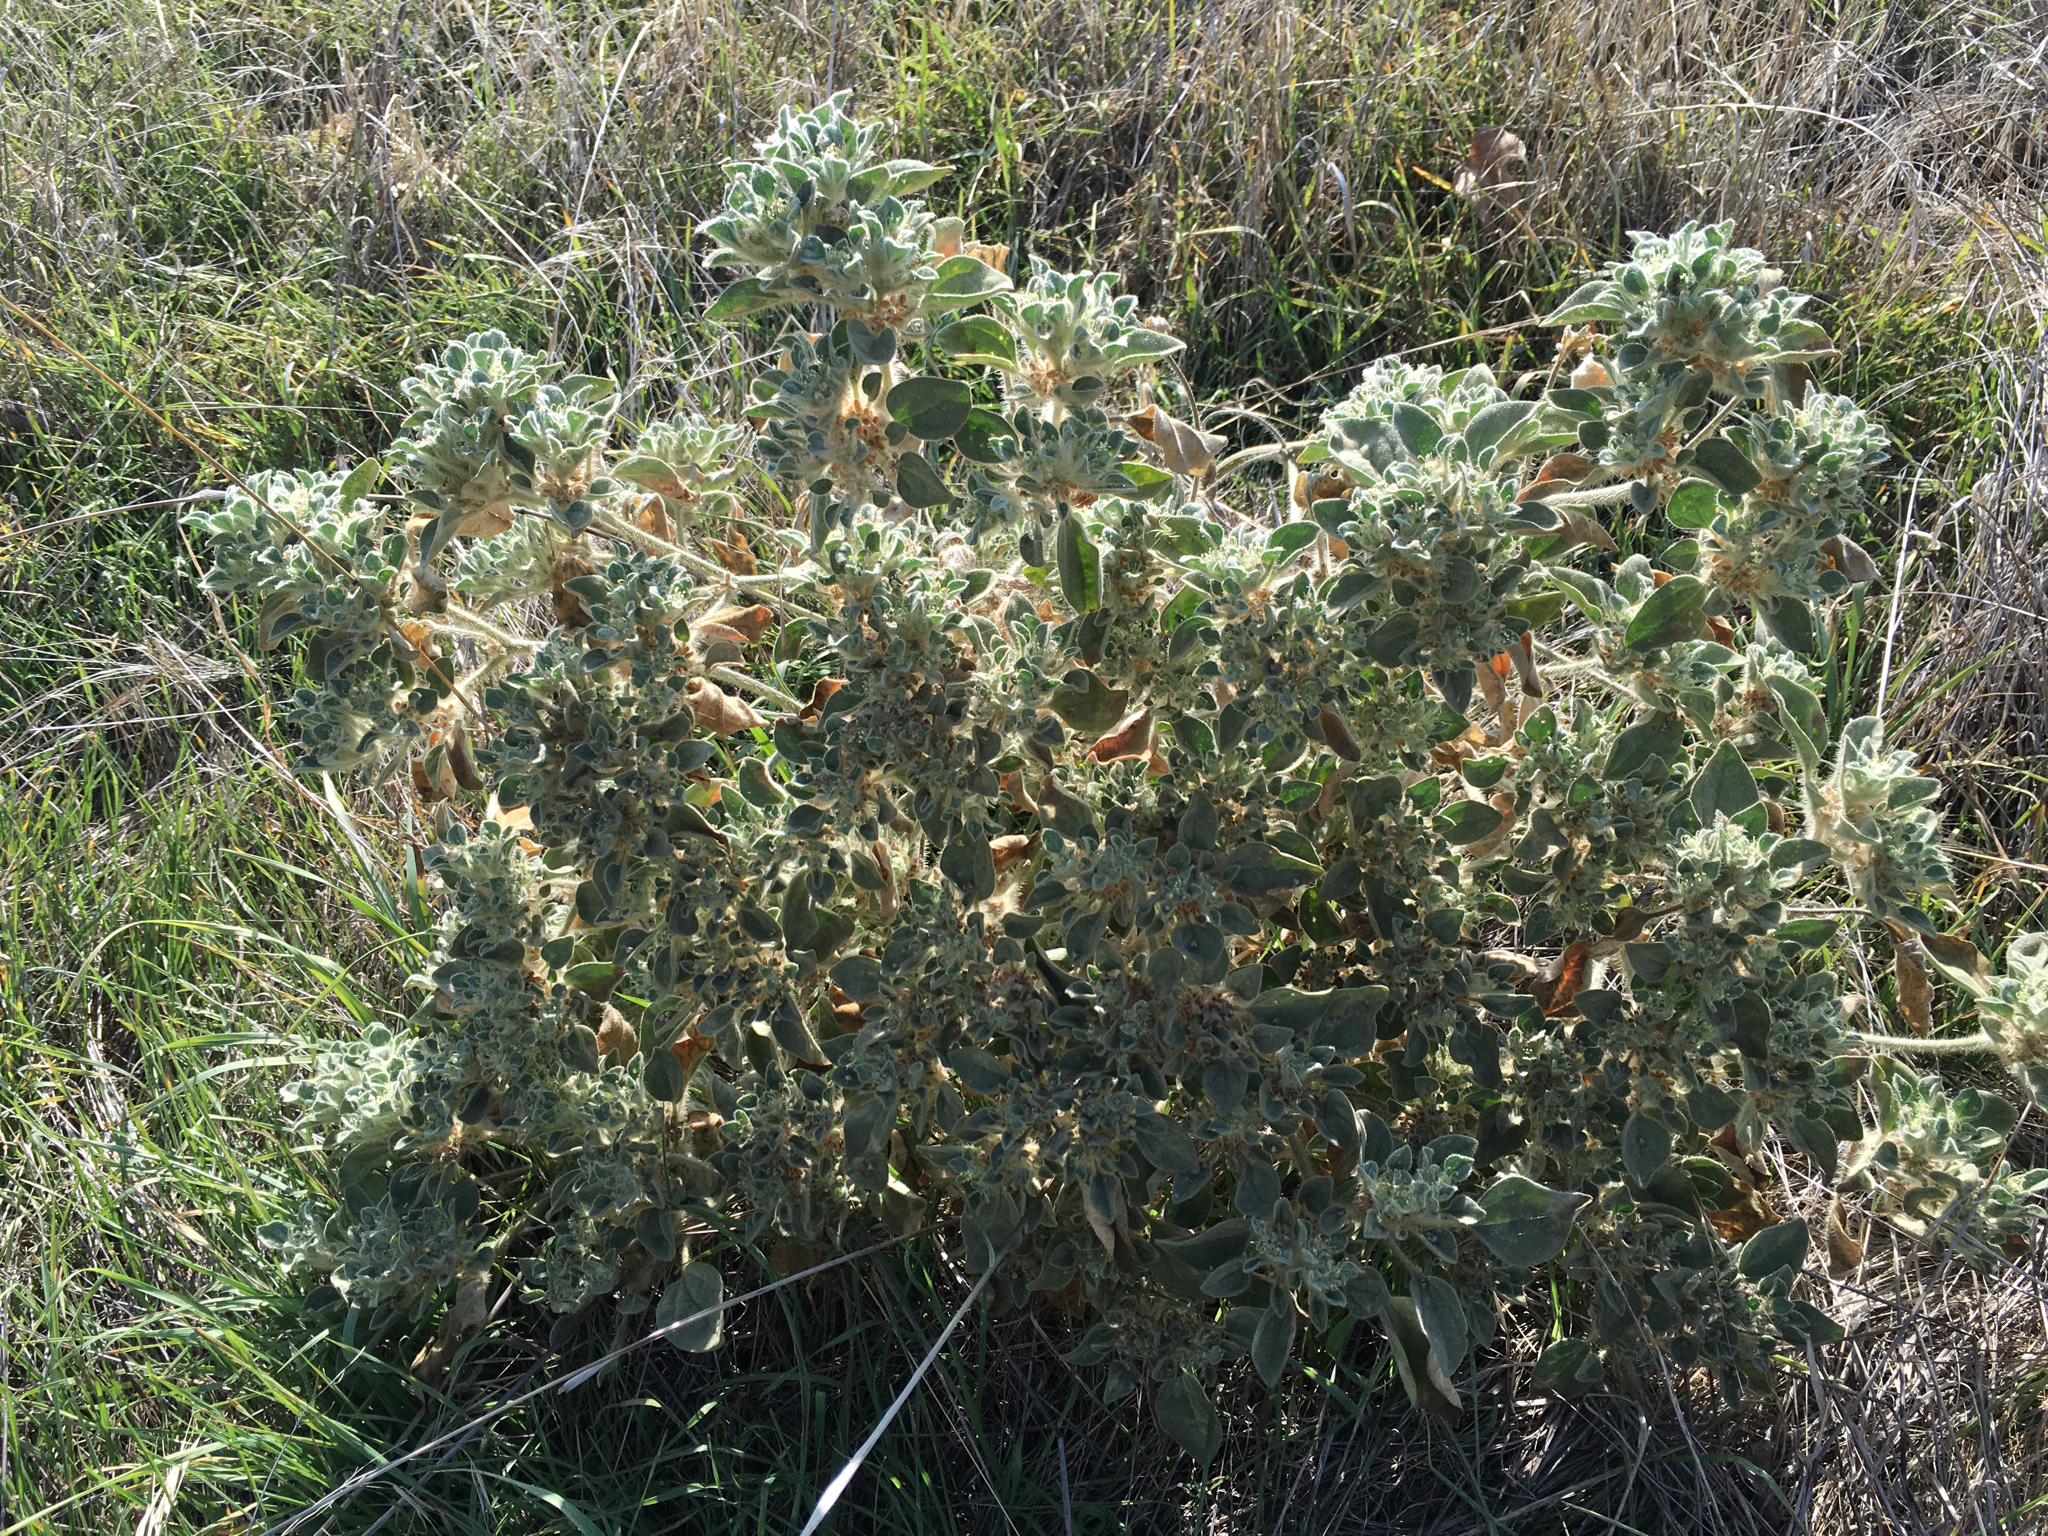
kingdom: Plantae
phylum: Tracheophyta
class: Magnoliopsida
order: Malpighiales
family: Euphorbiaceae
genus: Croton
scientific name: Croton setiger
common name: Dove weed
